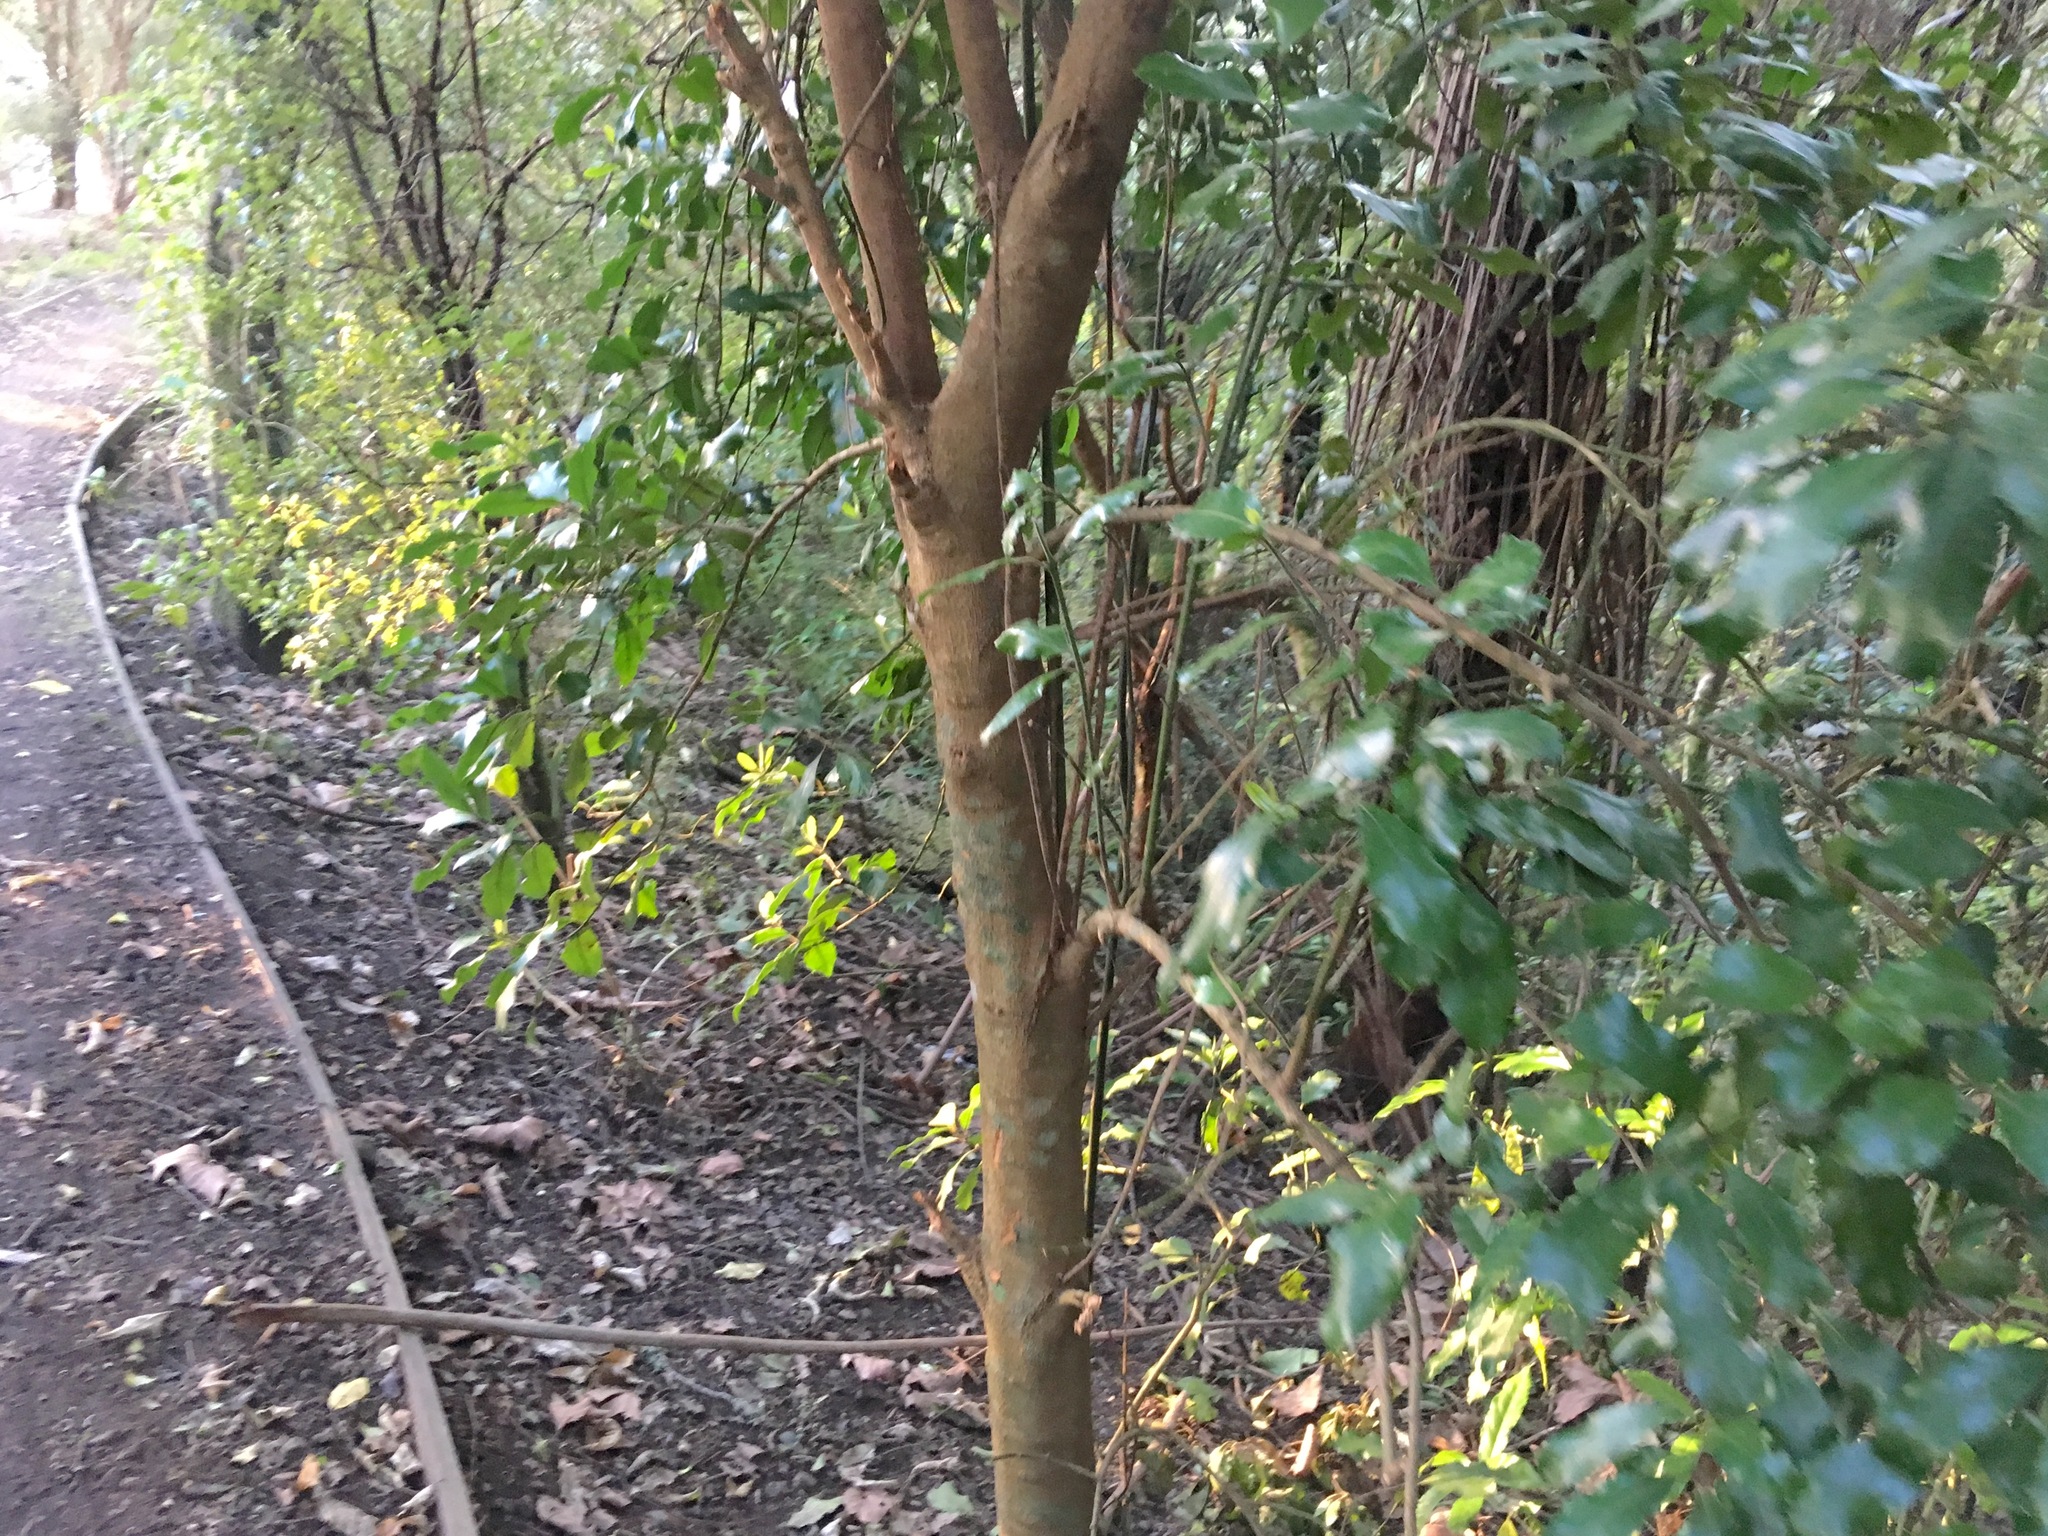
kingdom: Plantae
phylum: Tracheophyta
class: Magnoliopsida
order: Laurales
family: Monimiaceae
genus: Hedycarya
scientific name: Hedycarya arborea
